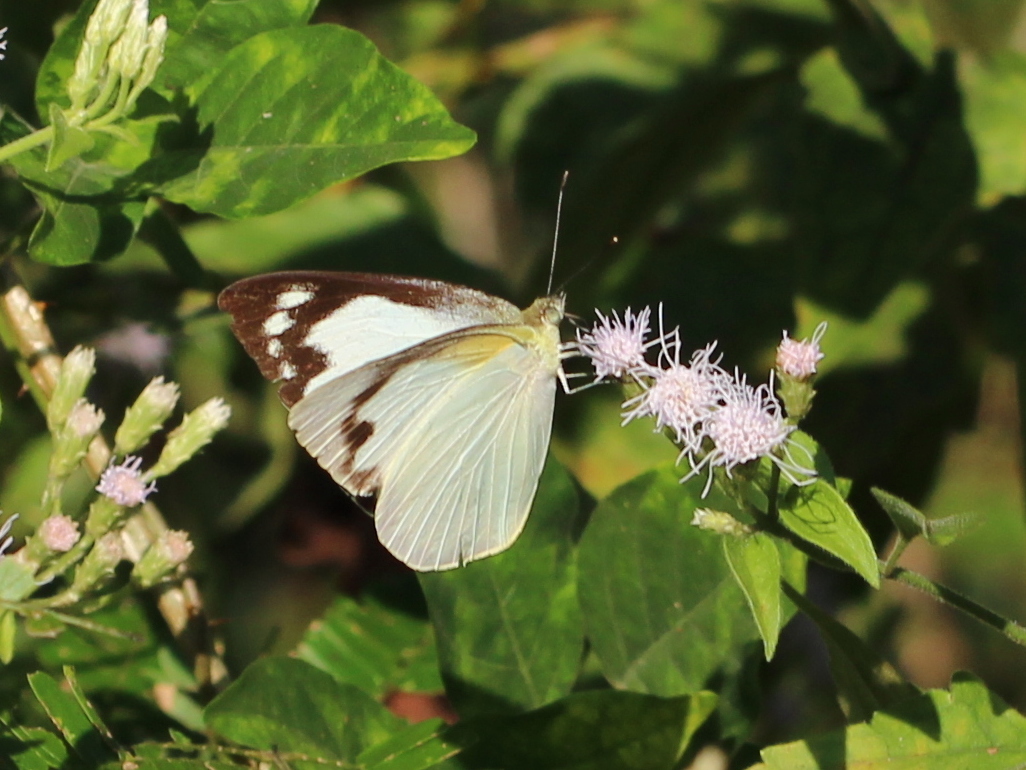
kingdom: Animalia
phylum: Arthropoda
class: Insecta
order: Lepidoptera
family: Pieridae
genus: Appias
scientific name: Appias albina
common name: Common albatross
